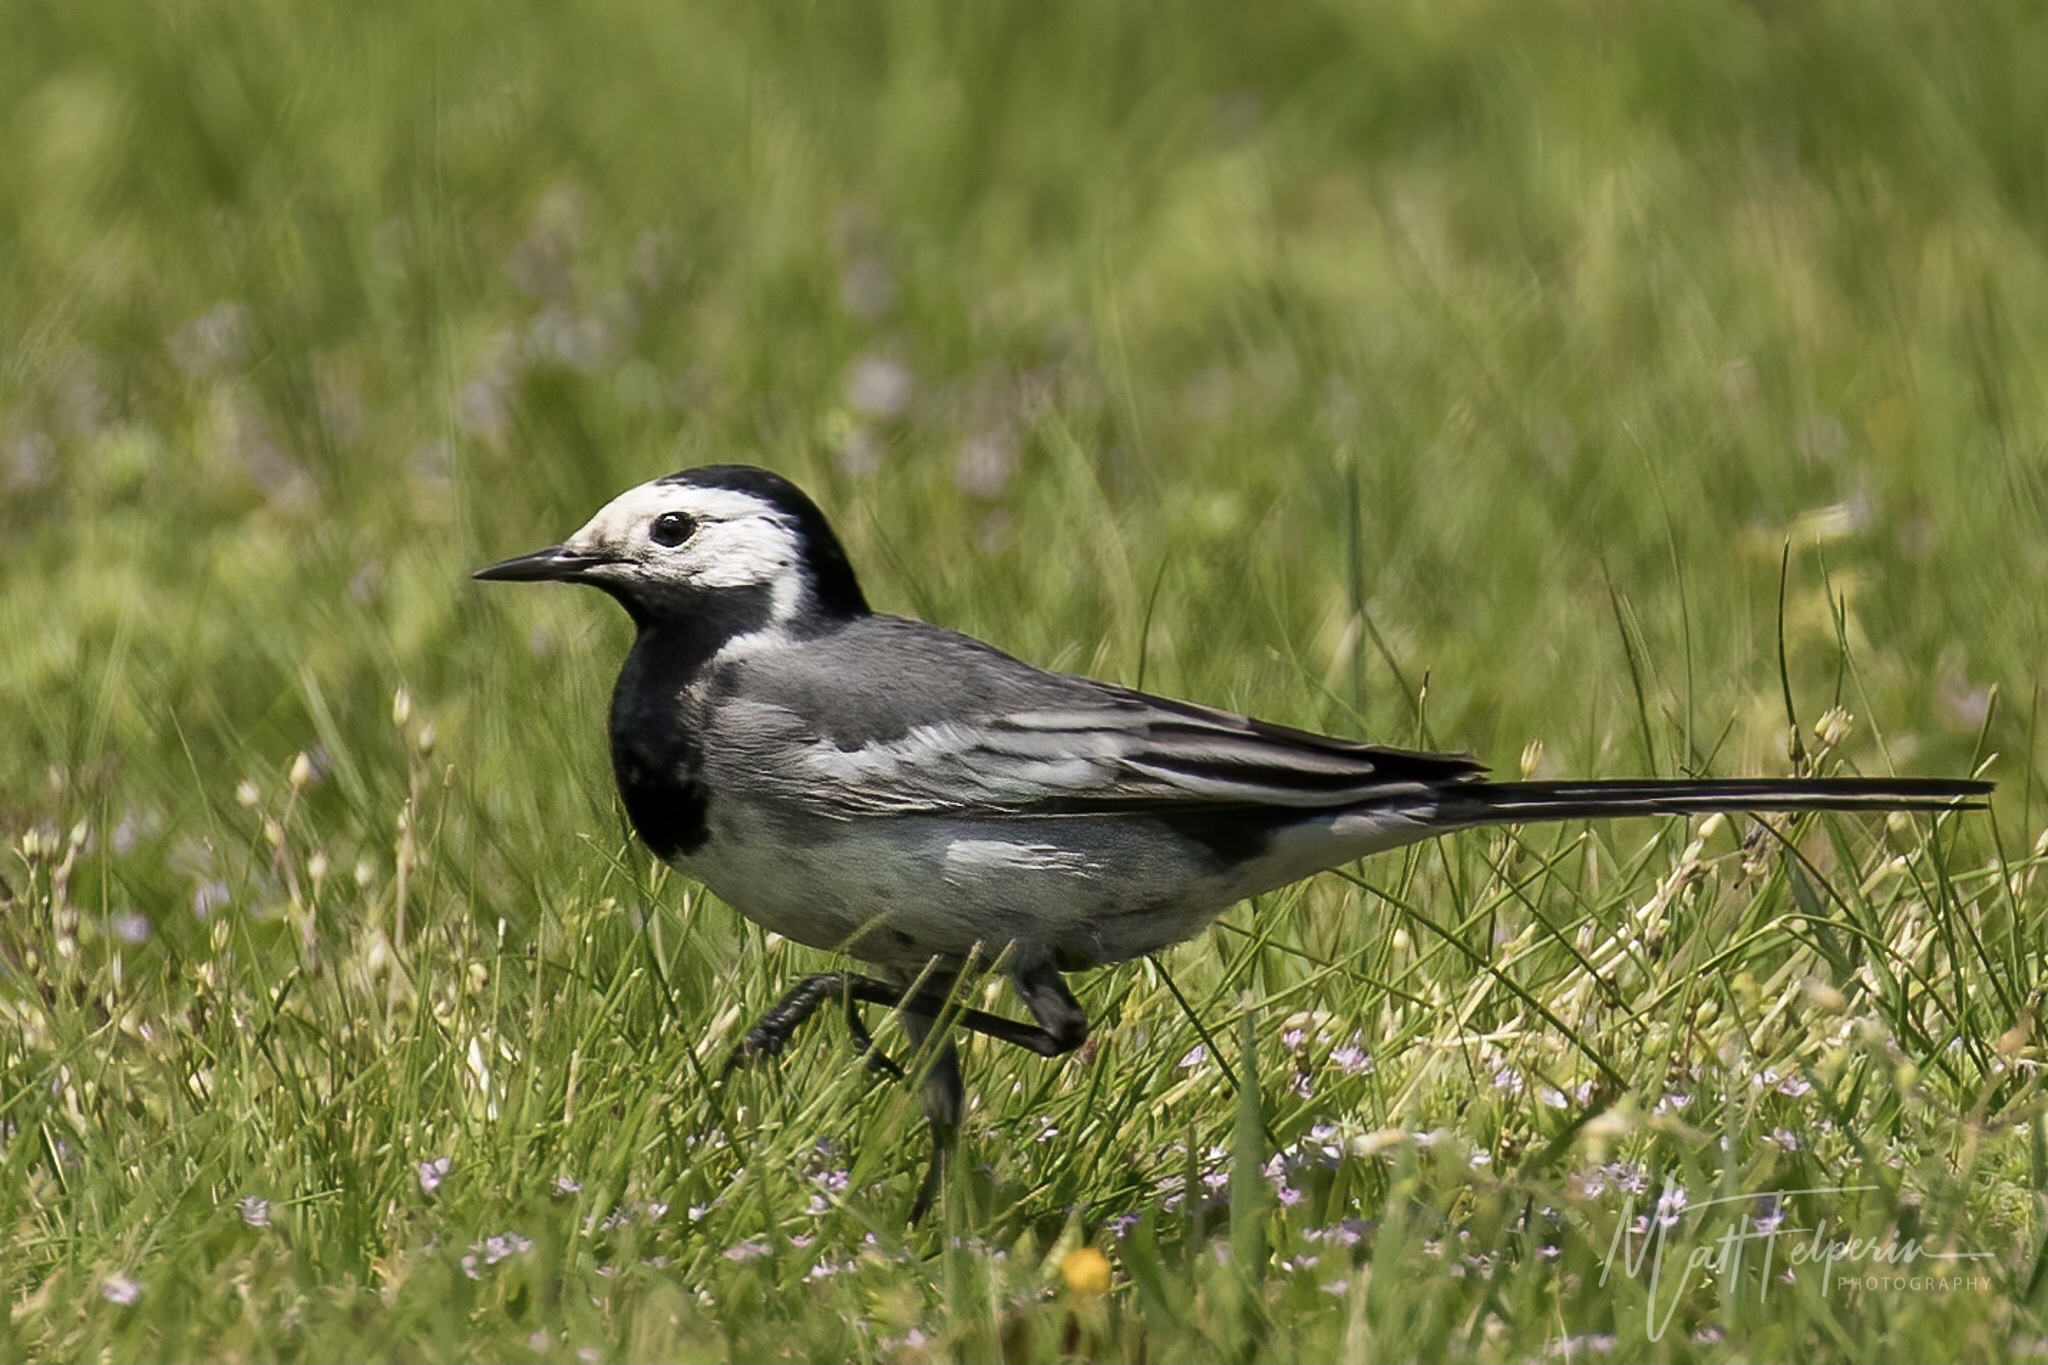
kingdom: Animalia
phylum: Chordata
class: Aves
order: Passeriformes
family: Motacillidae
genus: Motacilla
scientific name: Motacilla alba
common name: White wagtail
